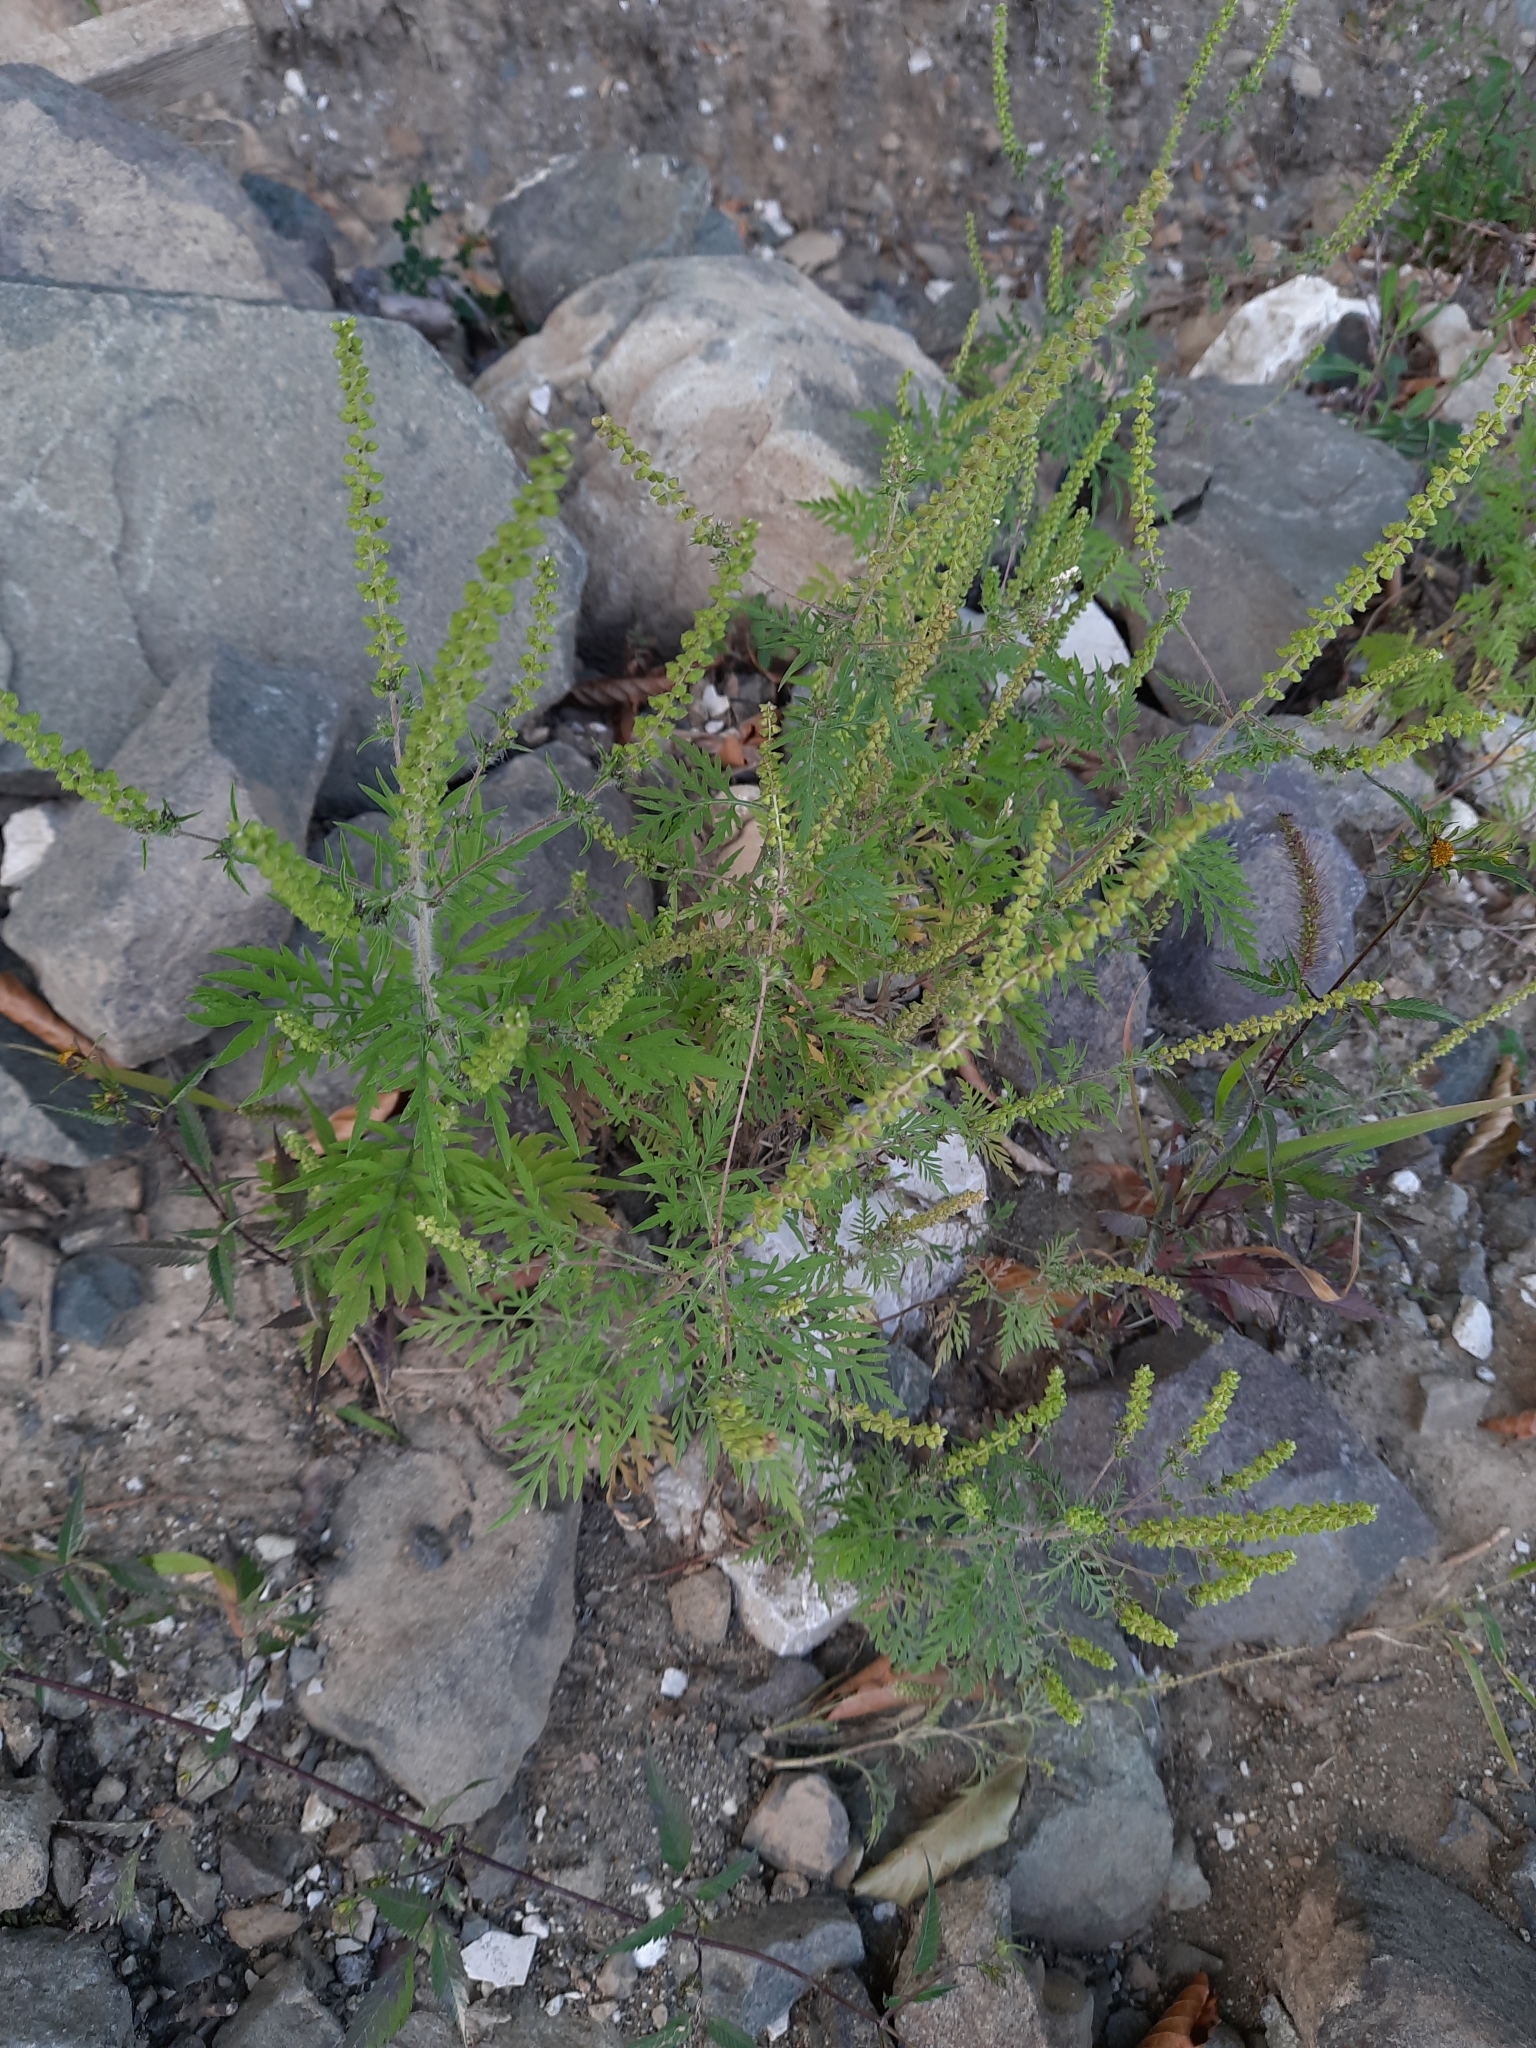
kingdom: Plantae
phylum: Tracheophyta
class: Magnoliopsida
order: Asterales
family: Asteraceae
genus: Ambrosia
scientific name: Ambrosia artemisiifolia
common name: Annual ragweed
